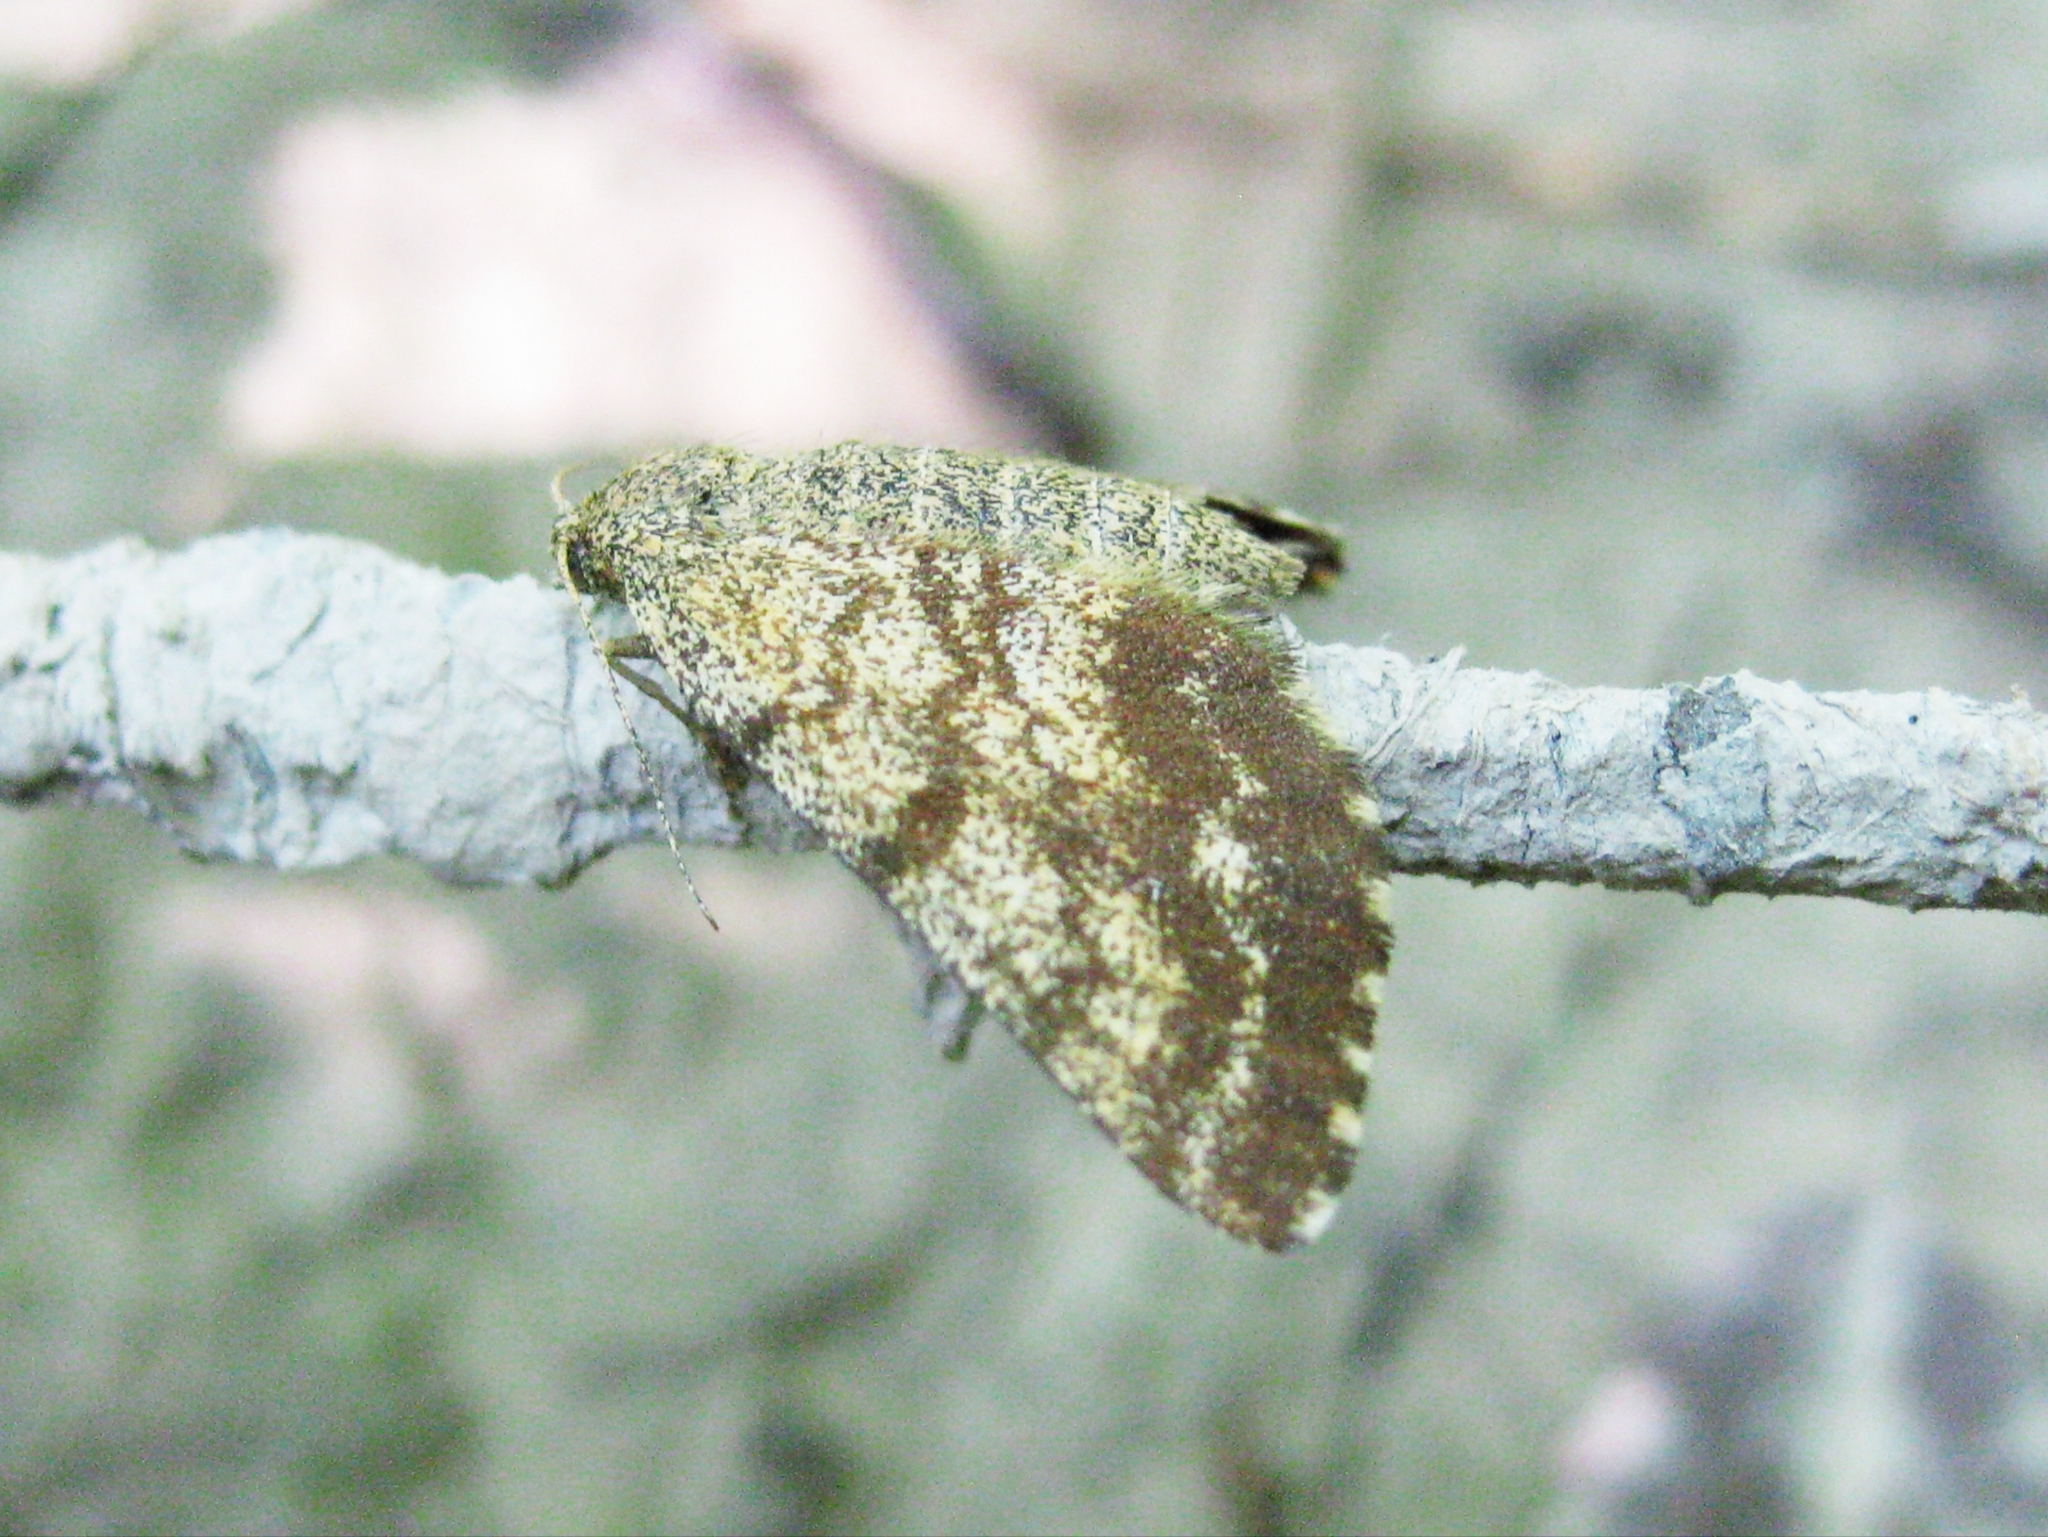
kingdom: Animalia
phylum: Arthropoda
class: Insecta
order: Lepidoptera
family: Geometridae
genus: Ematurga
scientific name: Ematurga atomaria
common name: Common heath
